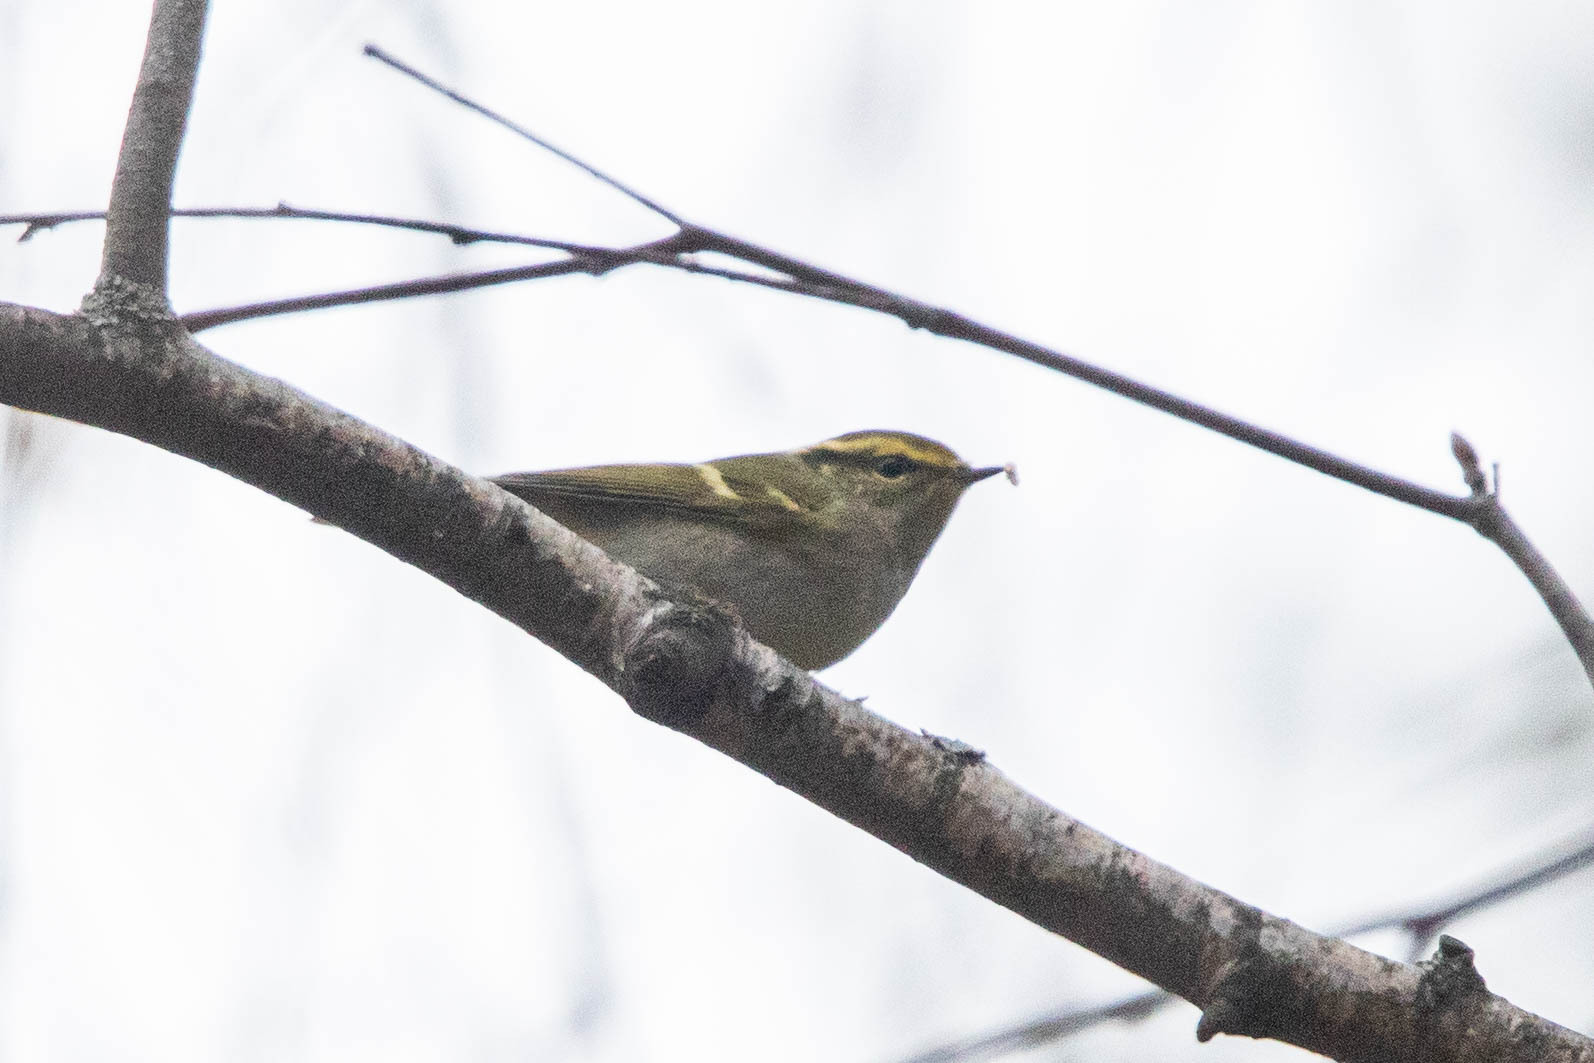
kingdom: Animalia
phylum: Chordata
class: Aves
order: Passeriformes
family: Phylloscopidae
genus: Phylloscopus
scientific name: Phylloscopus proregulus
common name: Pallas's leaf warbler
